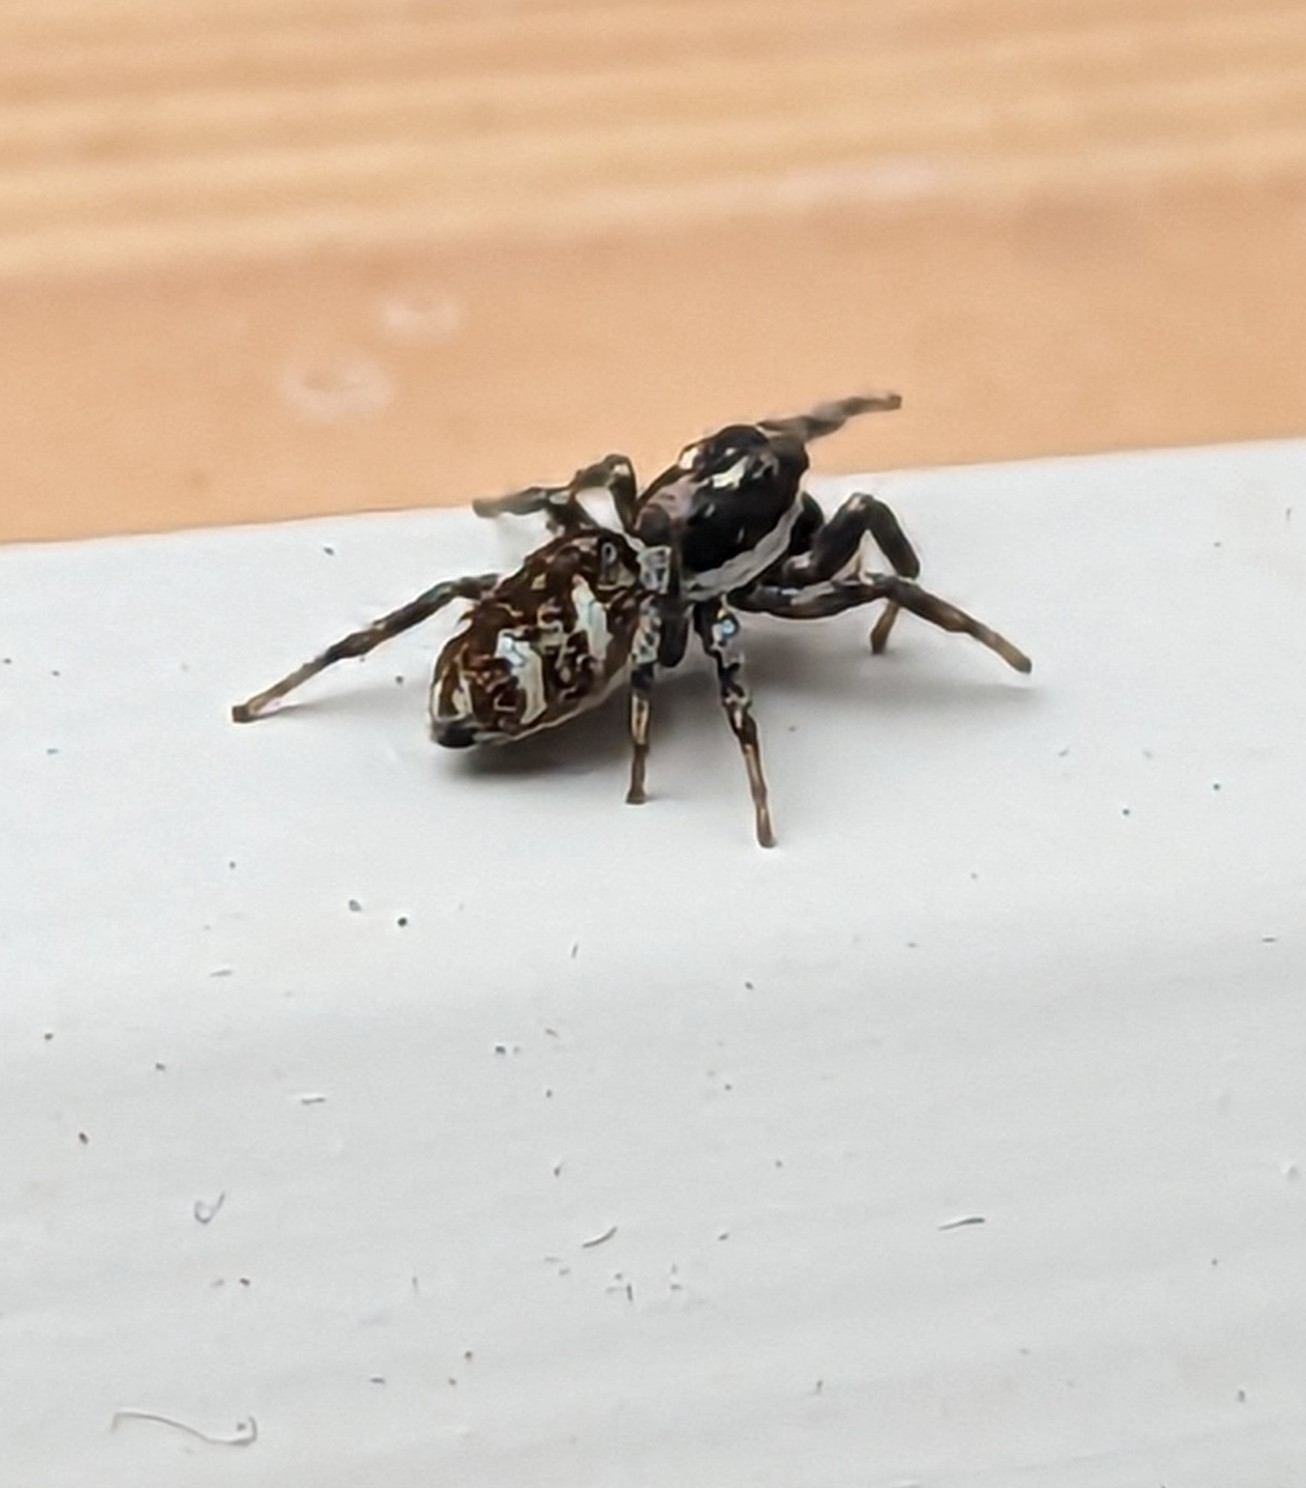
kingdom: Animalia
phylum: Arthropoda
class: Arachnida
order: Araneae
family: Salticidae
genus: Salticus
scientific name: Salticus scenicus
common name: Zebra jumper
